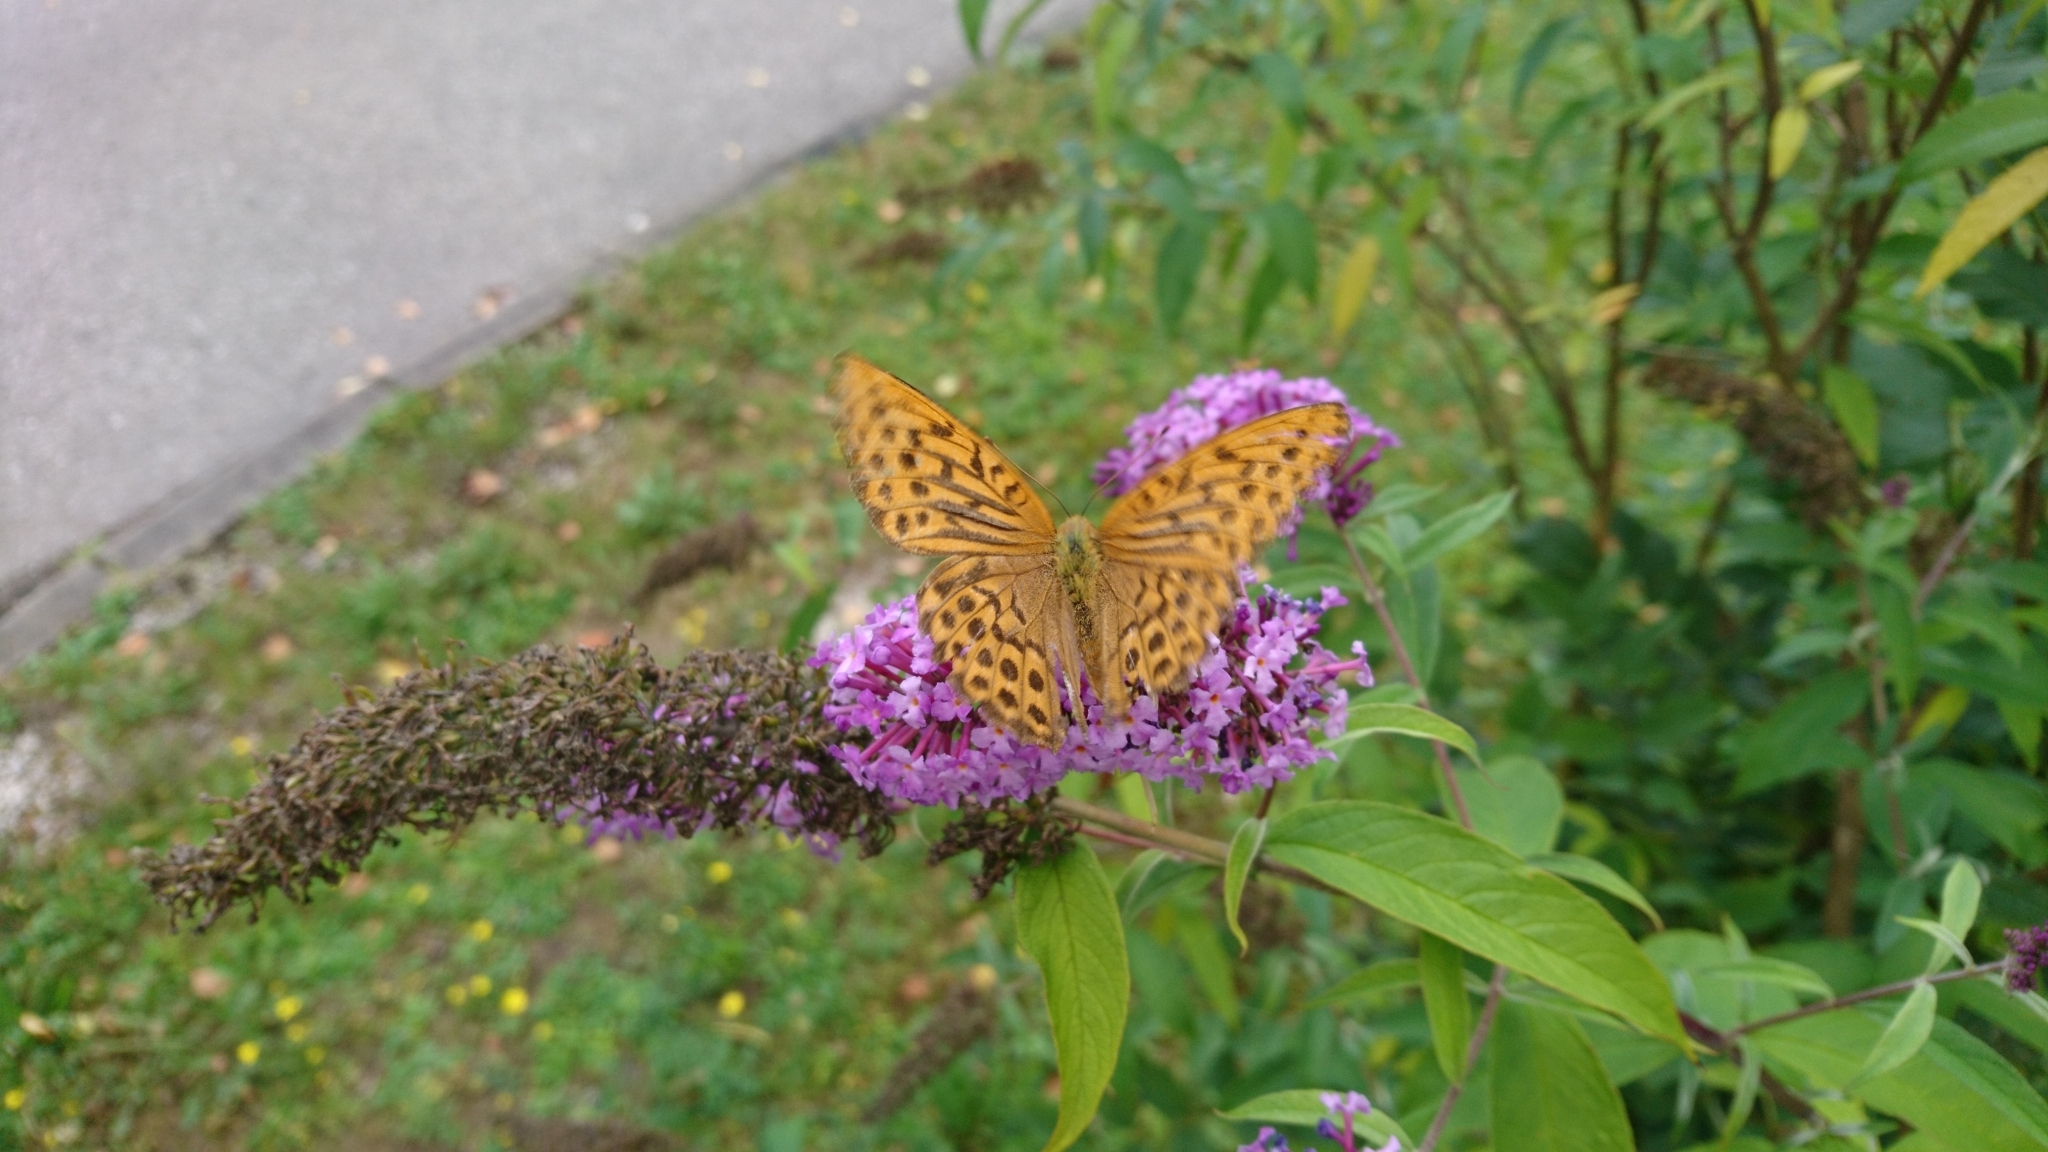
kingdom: Animalia
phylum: Arthropoda
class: Insecta
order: Lepidoptera
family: Nymphalidae
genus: Argynnis
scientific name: Argynnis paphia
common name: Silver-washed fritillary
